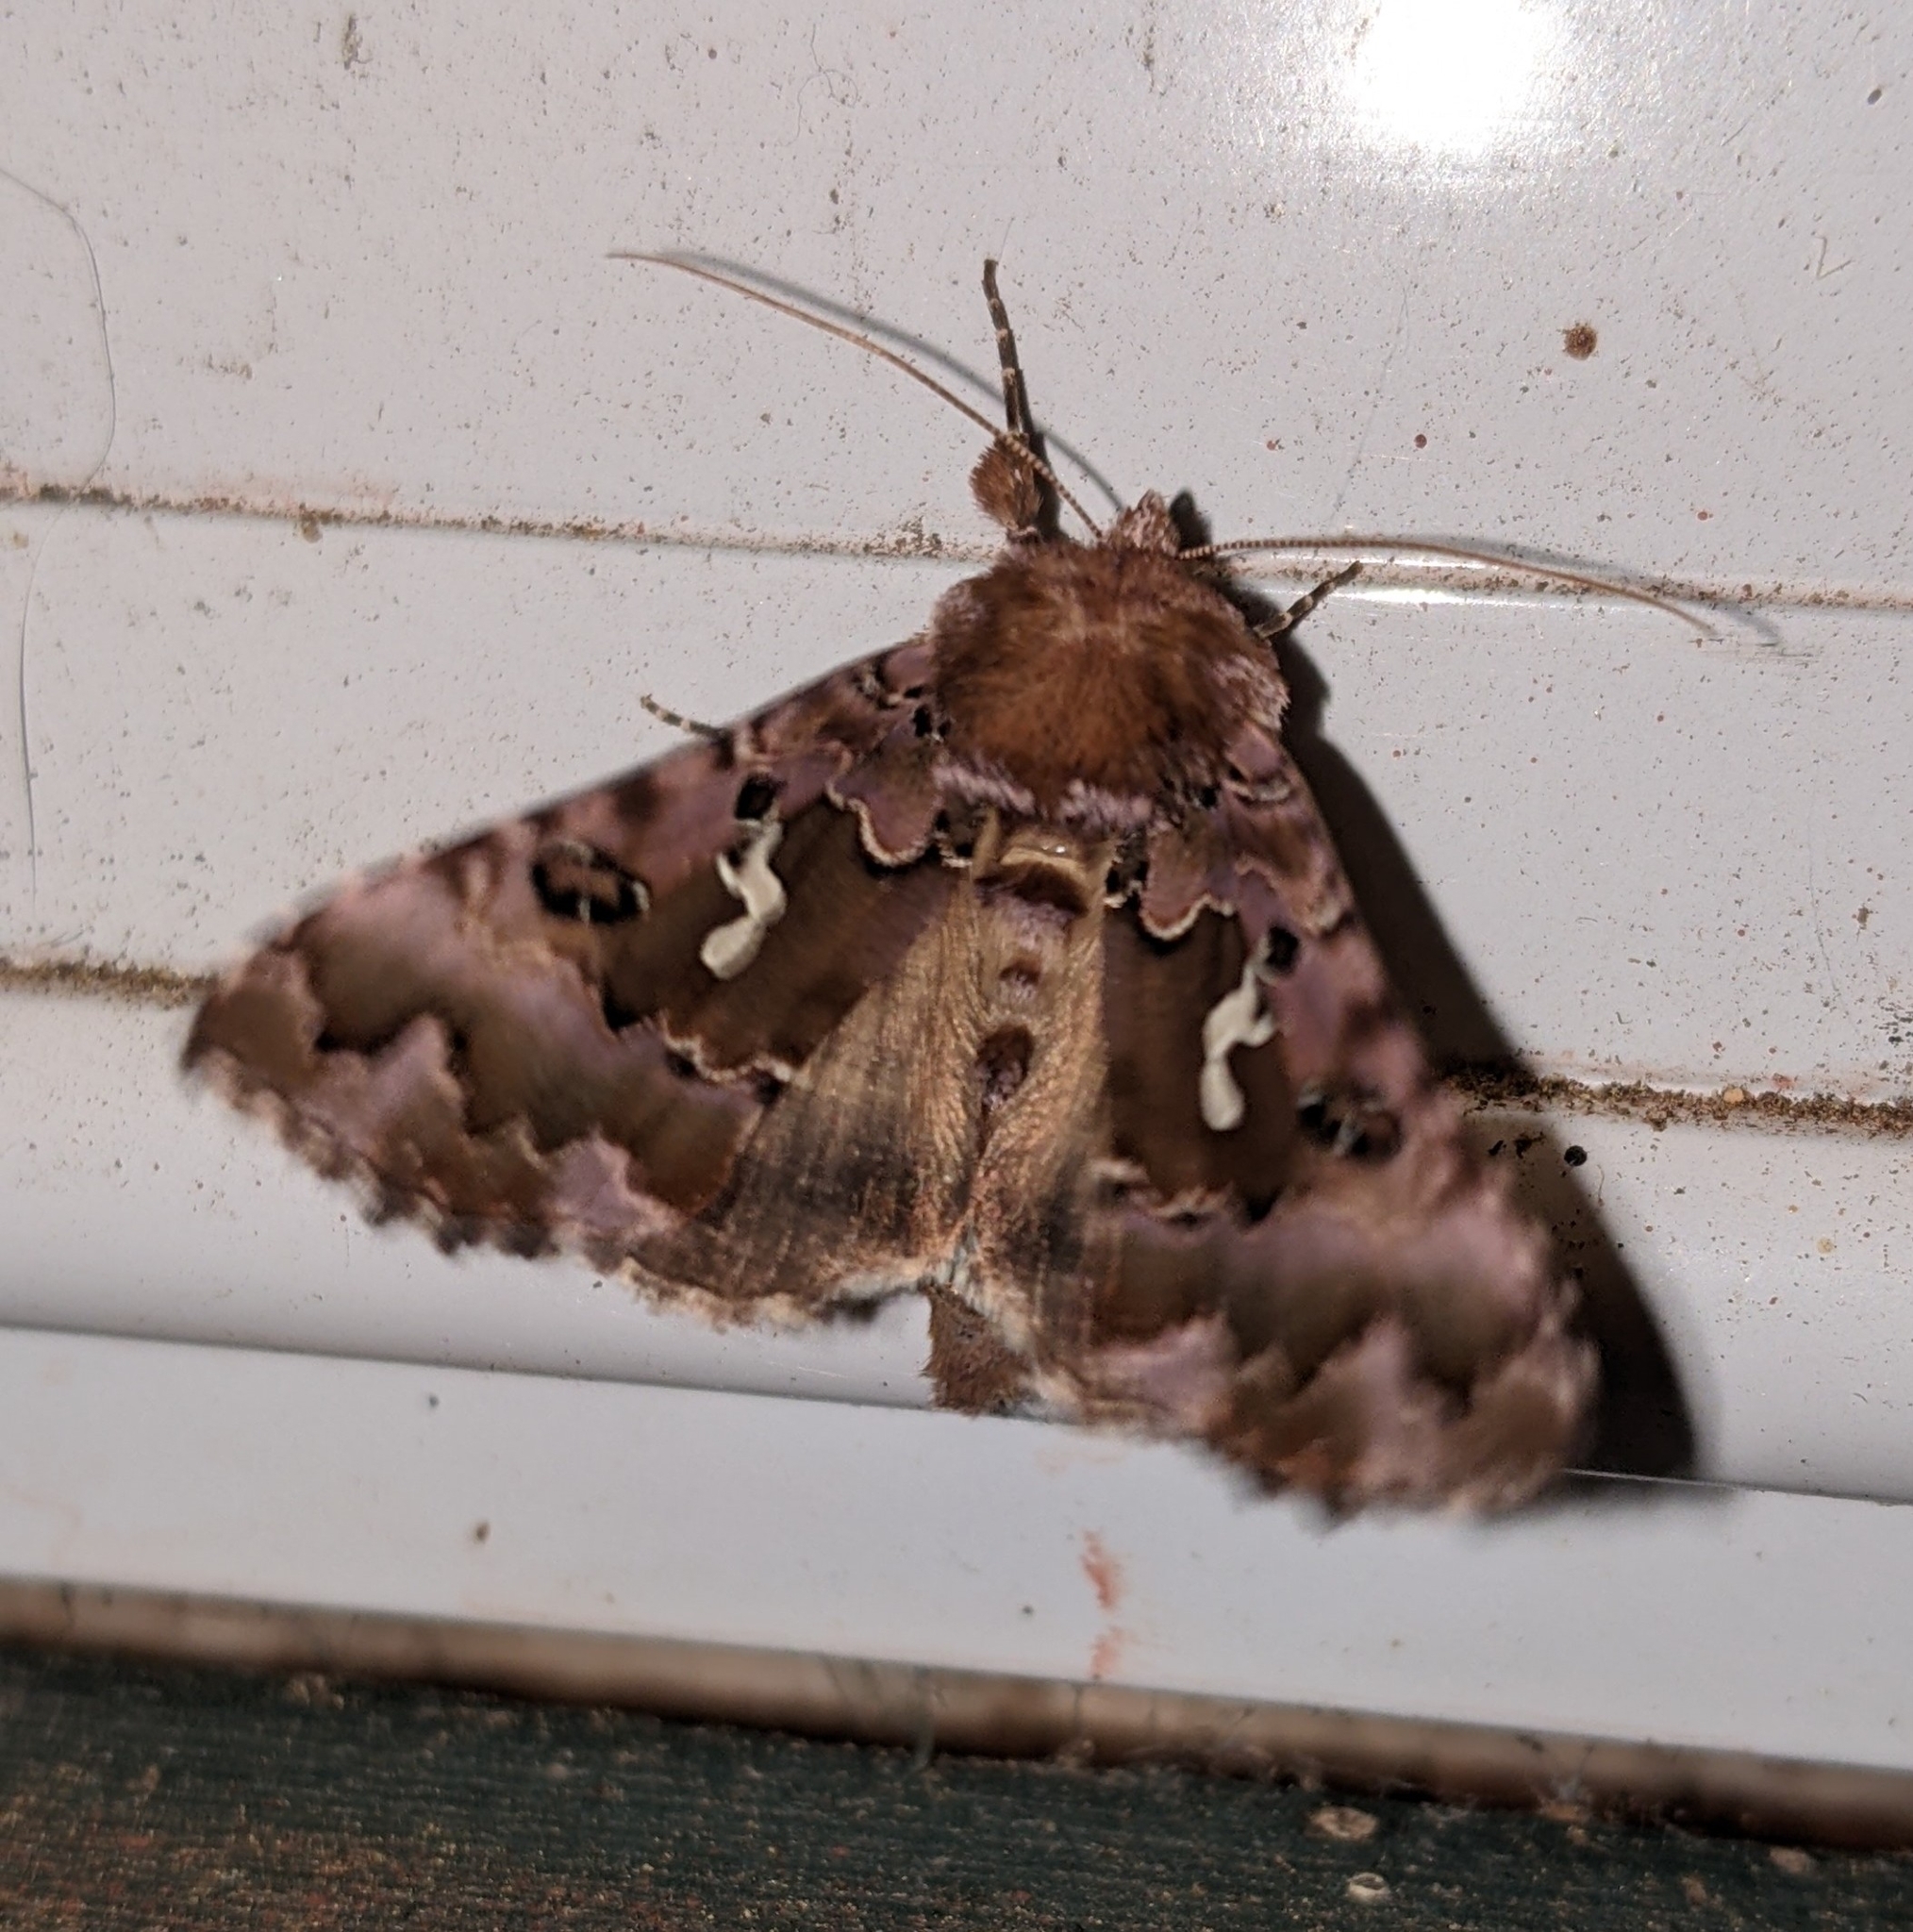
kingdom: Animalia
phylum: Arthropoda
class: Insecta
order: Lepidoptera
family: Noctuidae
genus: Autographa
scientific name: Autographa corusca
